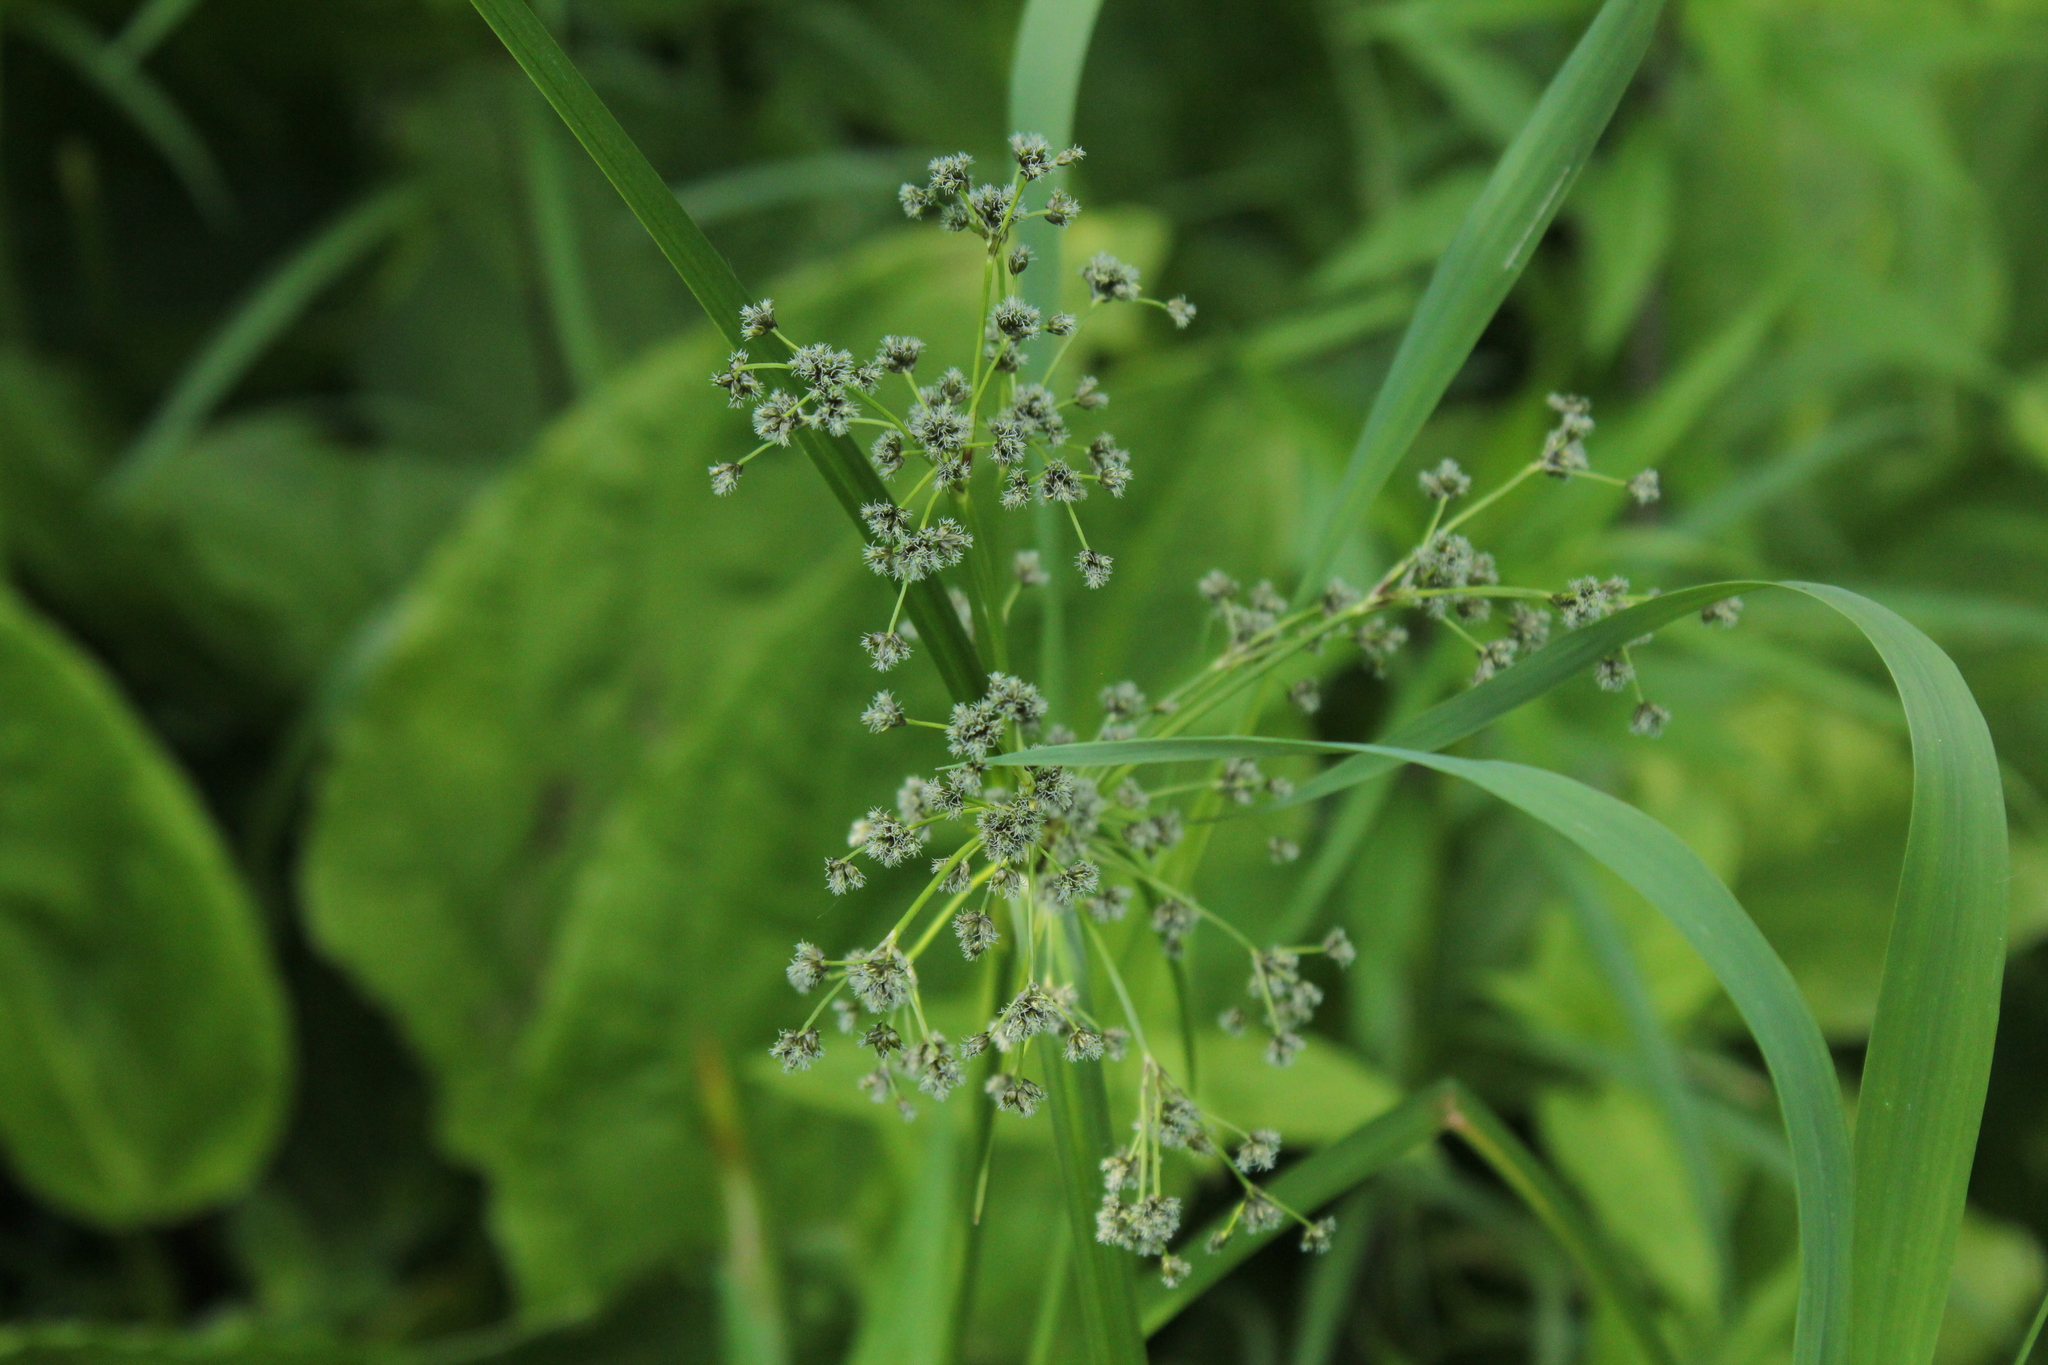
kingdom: Plantae
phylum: Tracheophyta
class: Liliopsida
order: Poales
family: Cyperaceae
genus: Scirpus
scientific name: Scirpus microcarpus
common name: Panicled bulrush
